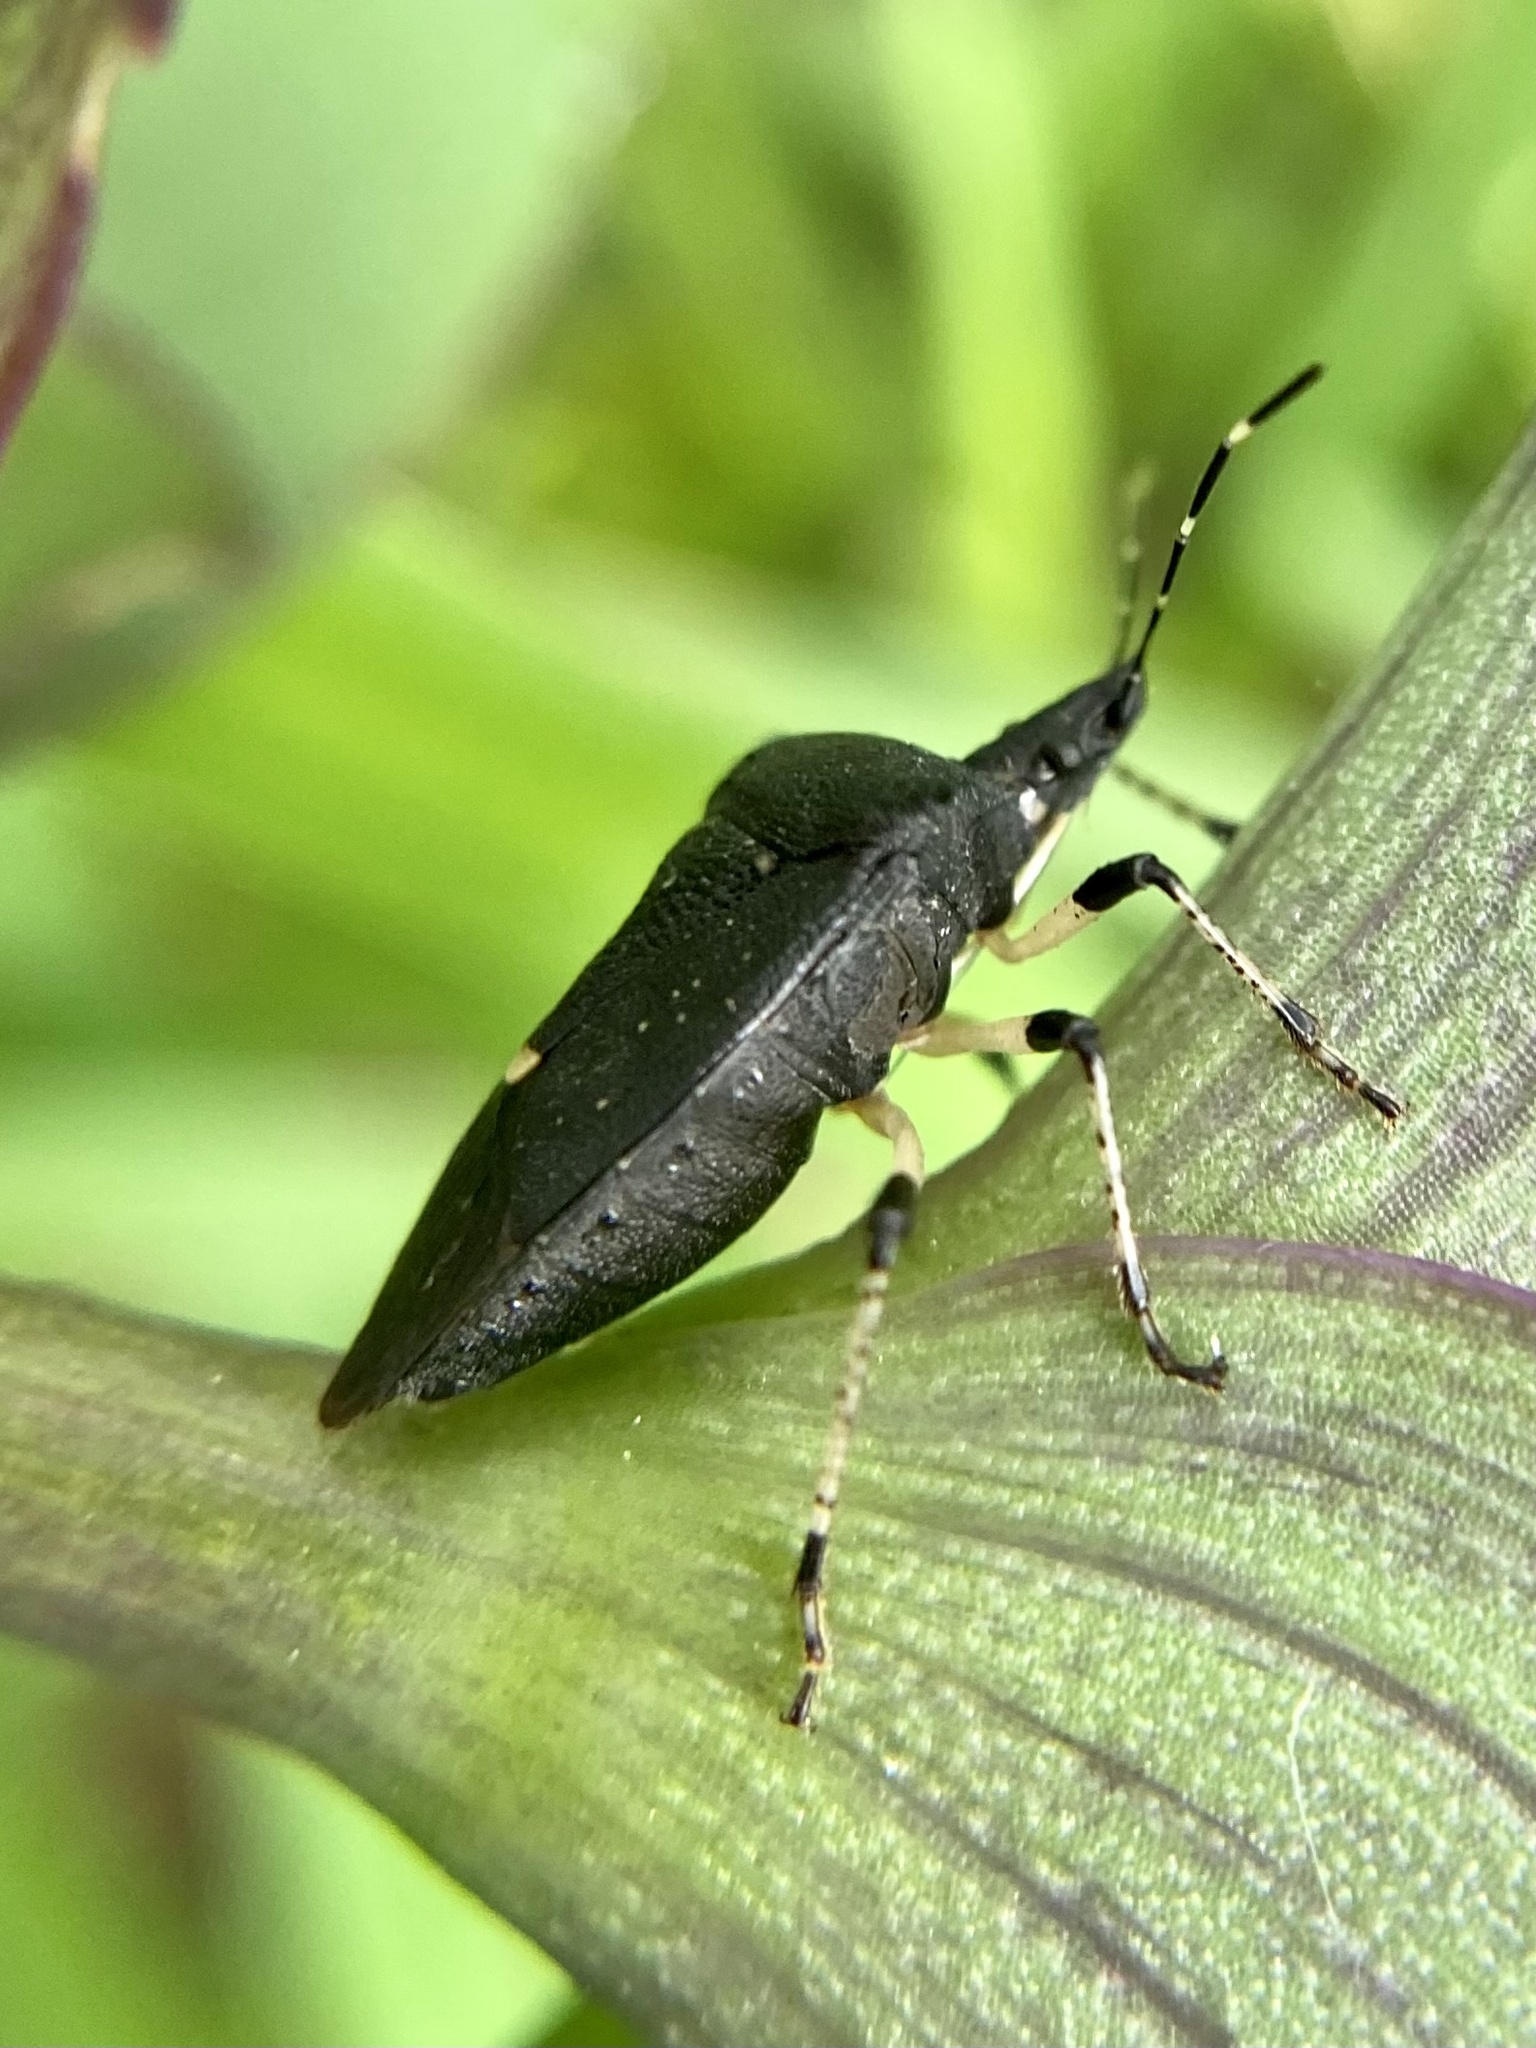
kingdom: Animalia
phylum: Arthropoda
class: Insecta
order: Hemiptera
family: Pentatomidae
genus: Proxys
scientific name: Proxys punctulatus
